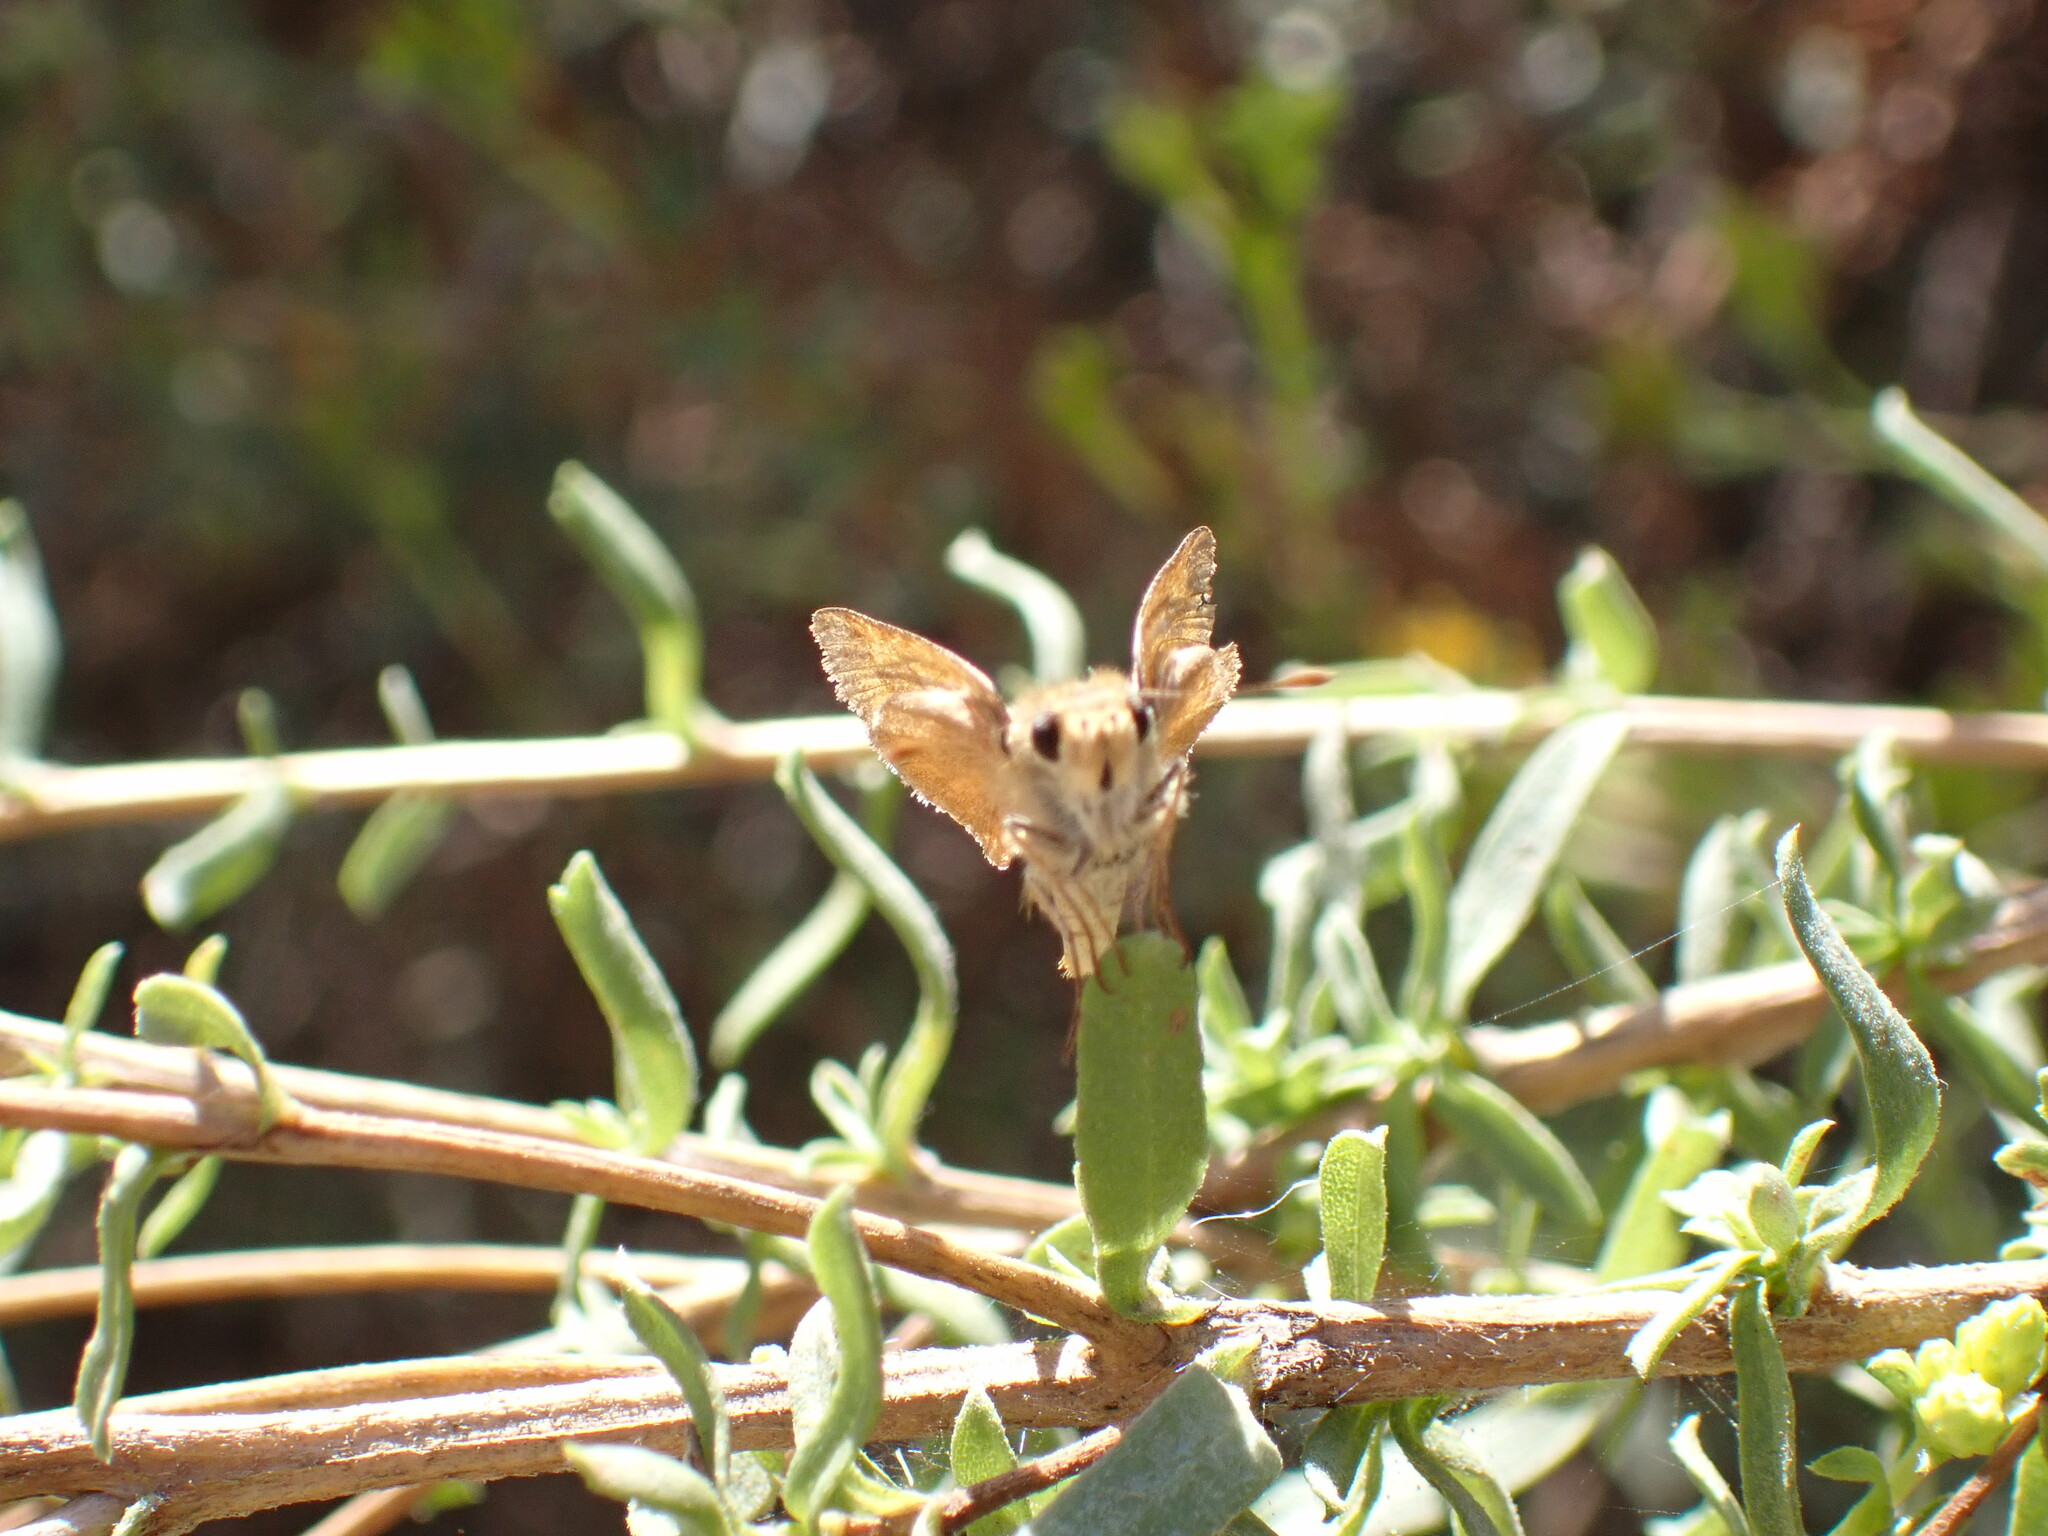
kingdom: Animalia
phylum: Arthropoda
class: Insecta
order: Lepidoptera
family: Hesperiidae
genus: Ochlodes
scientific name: Ochlodes sylvanoides
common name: Woodland skipper
